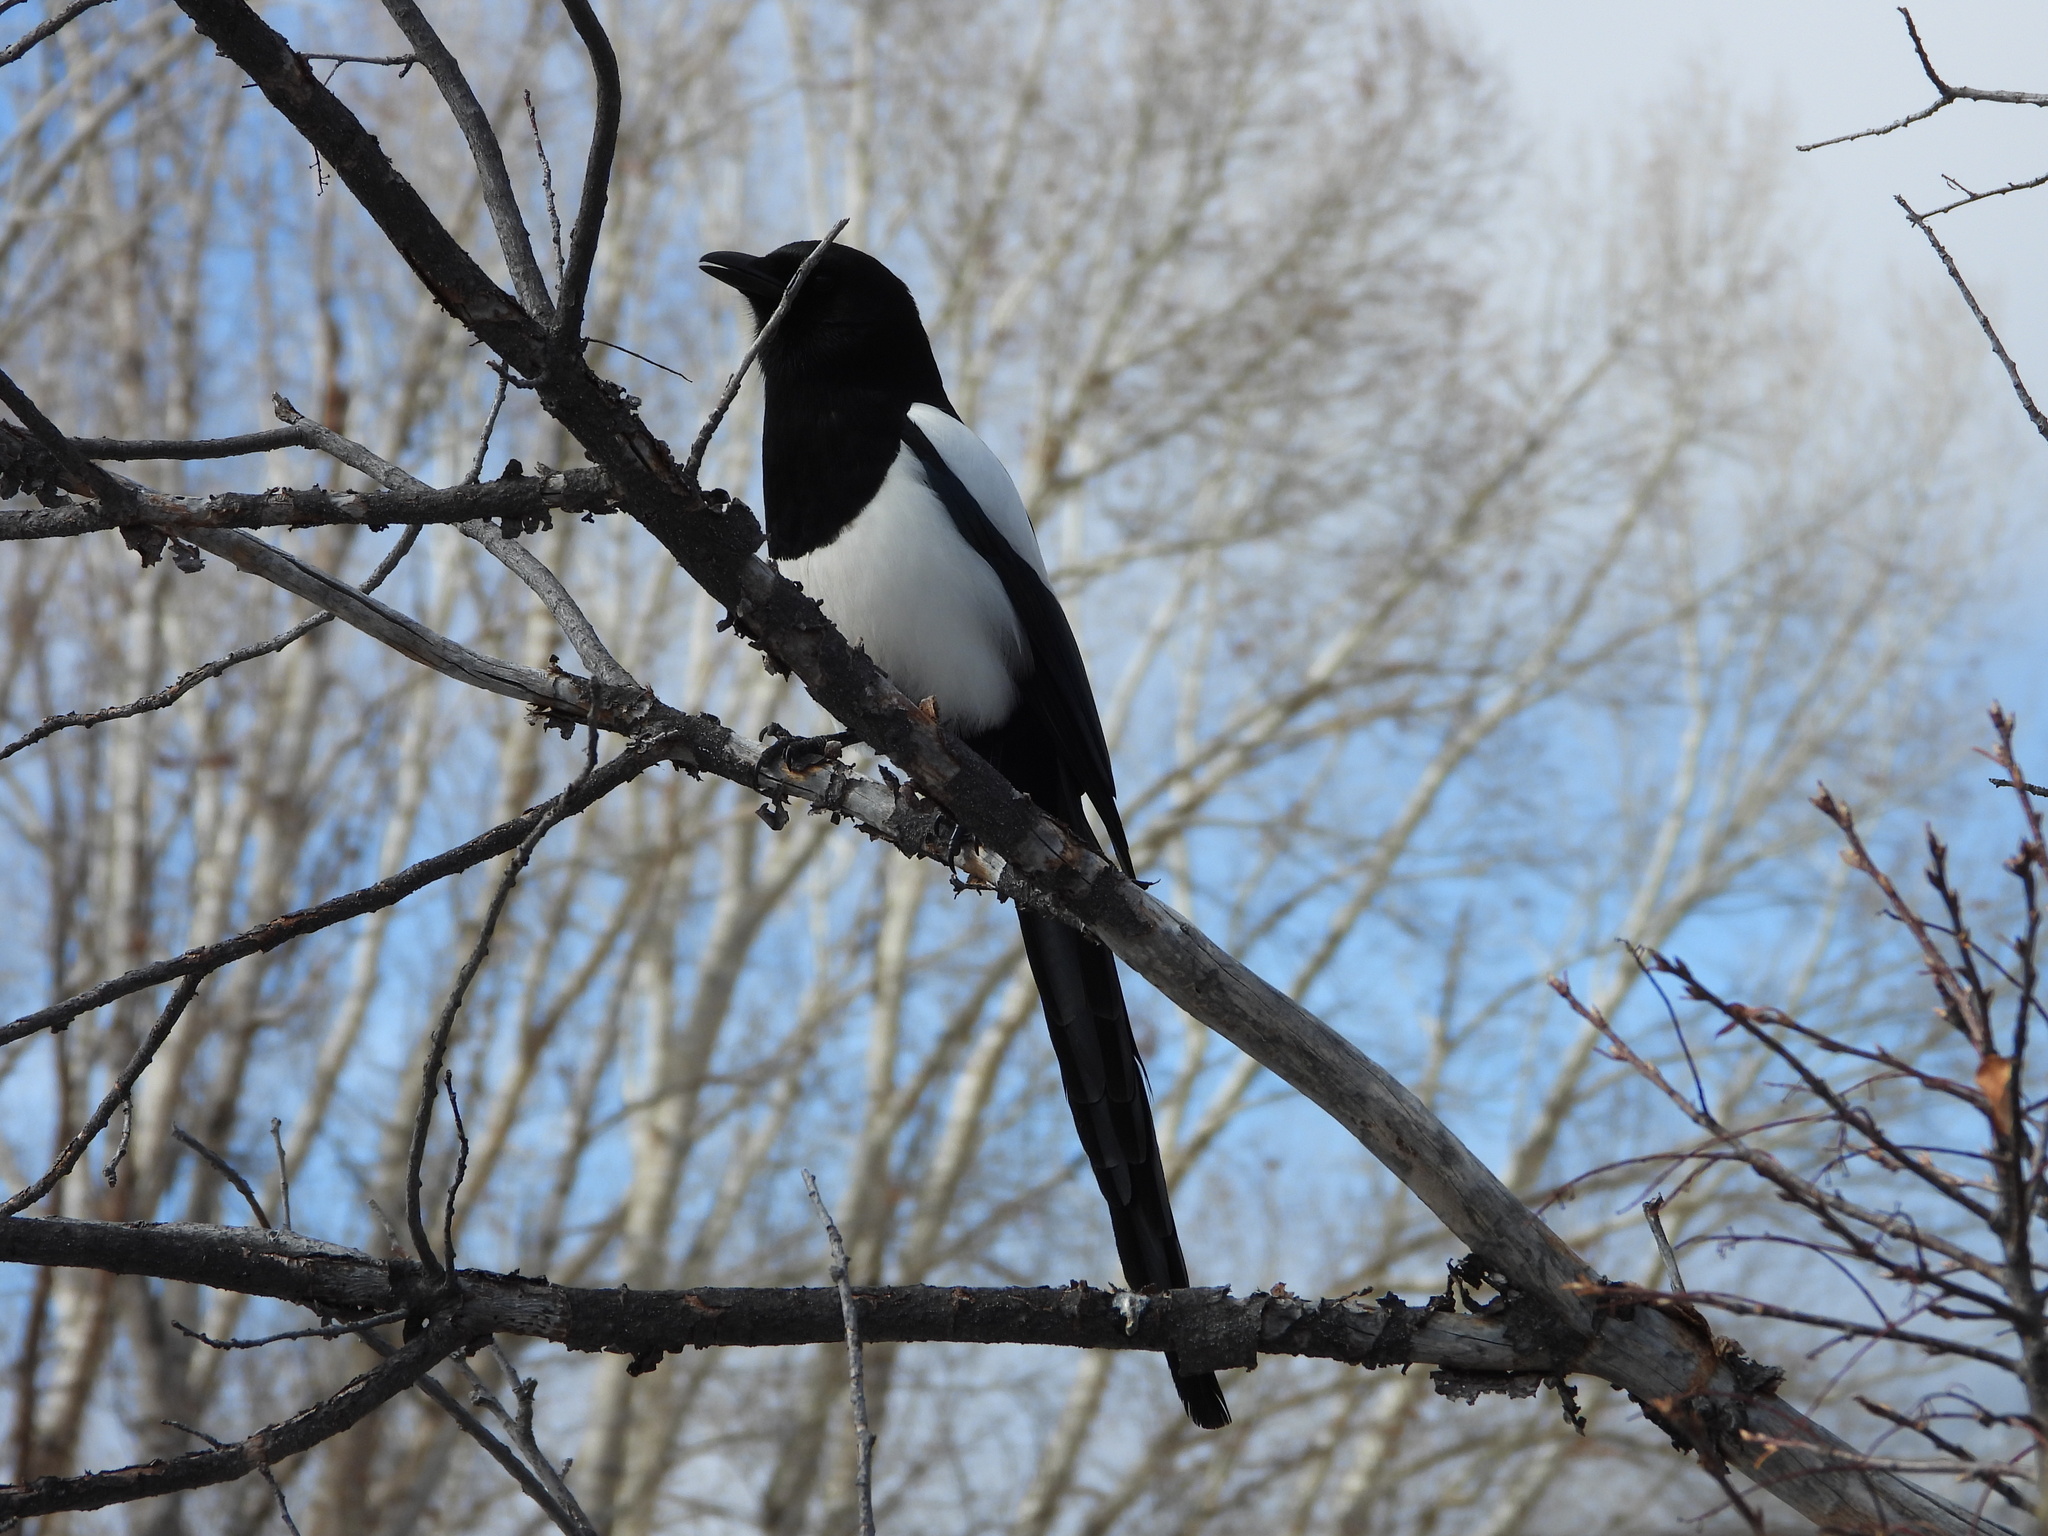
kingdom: Animalia
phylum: Chordata
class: Aves
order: Passeriformes
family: Corvidae
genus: Pica
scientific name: Pica hudsonia
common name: Black-billed magpie
